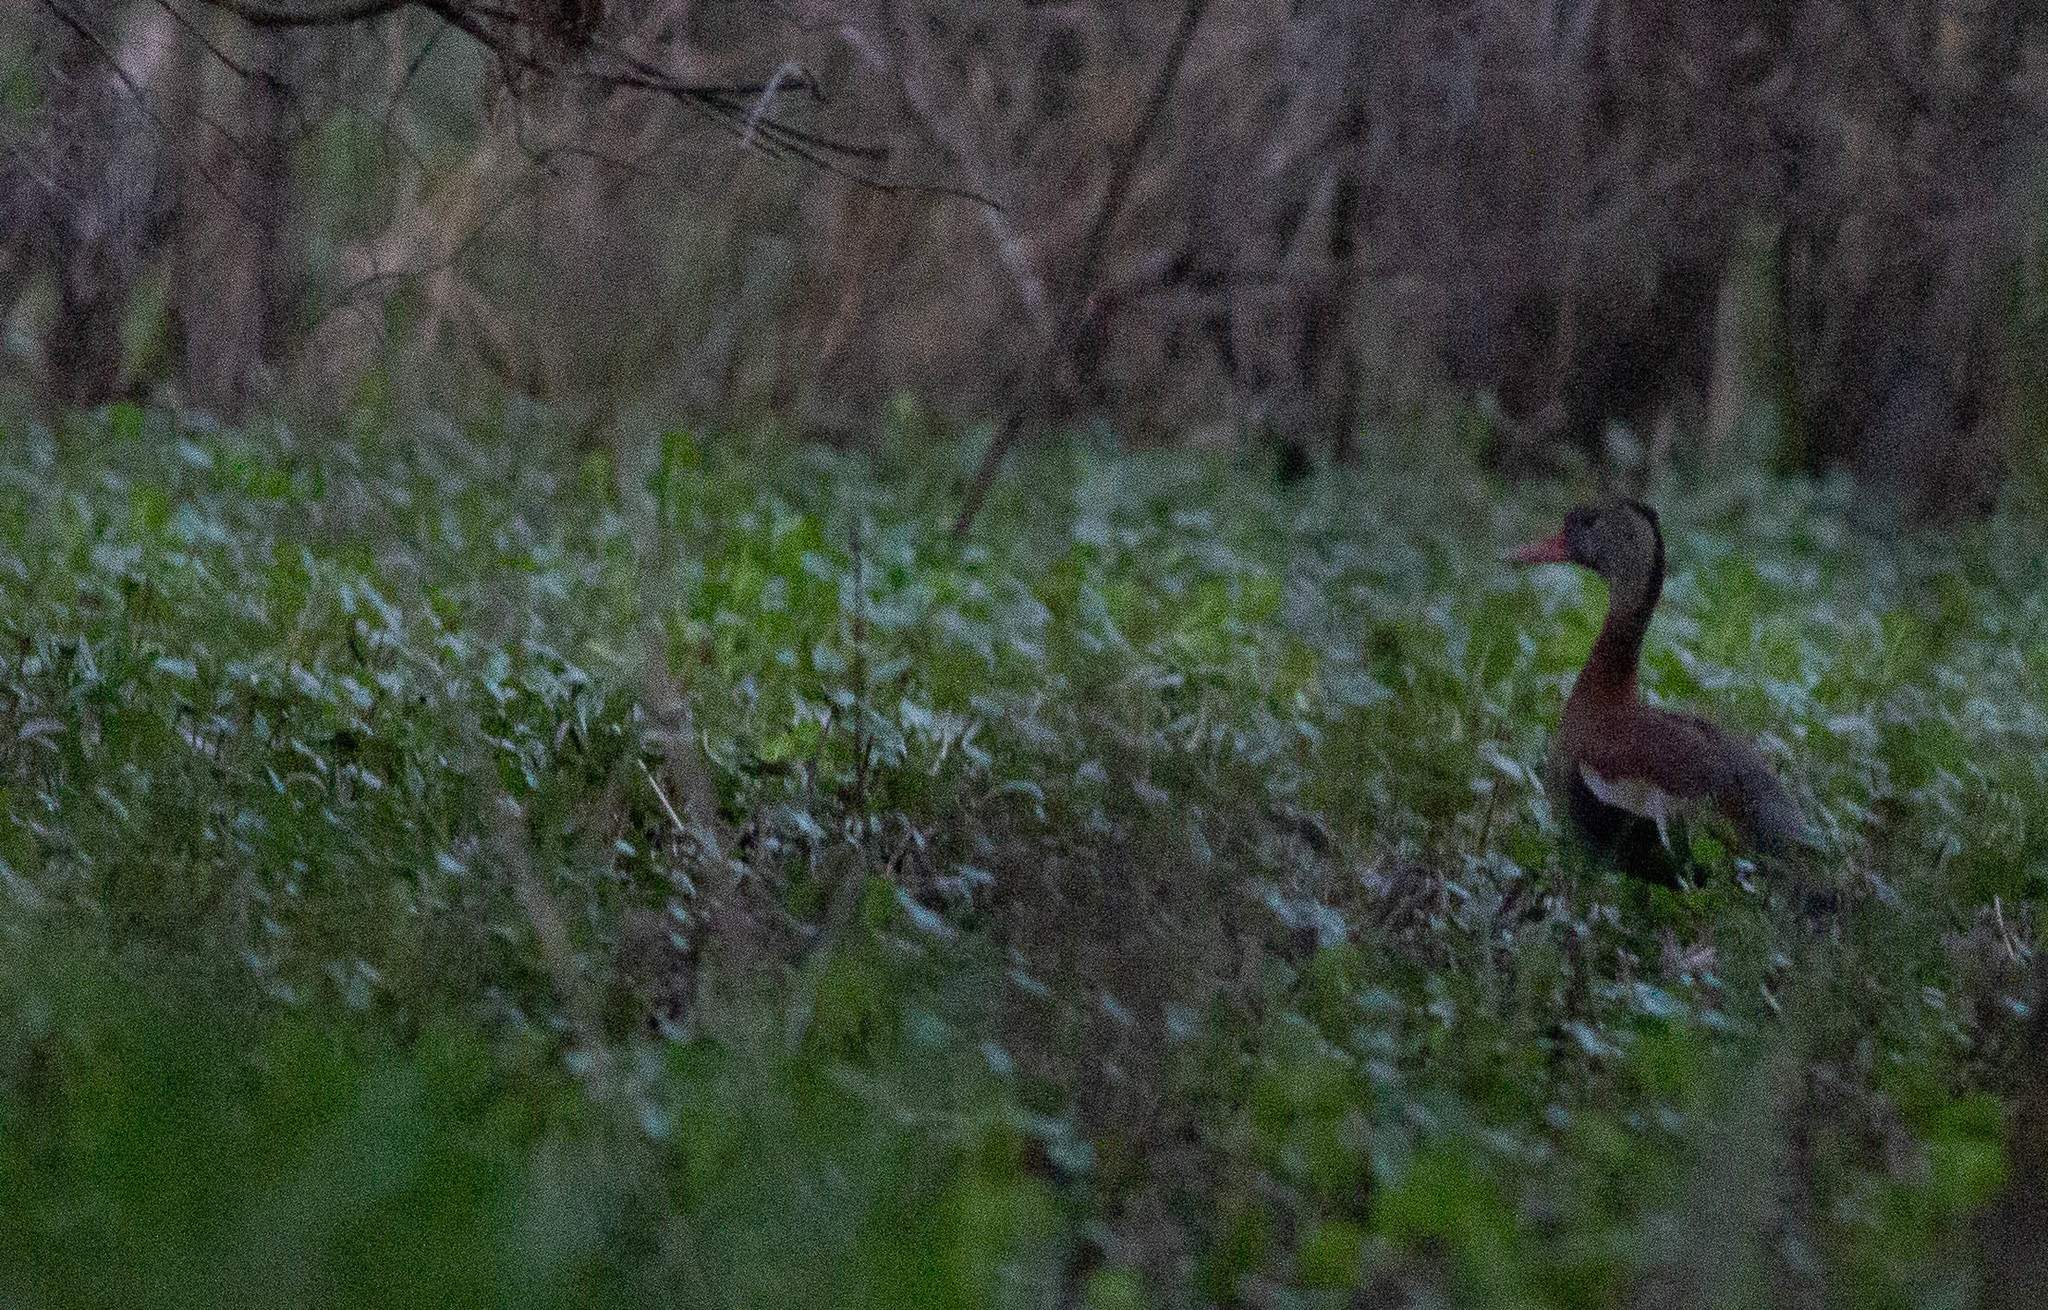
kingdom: Animalia
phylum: Chordata
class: Aves
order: Anseriformes
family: Anatidae
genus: Dendrocygna
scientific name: Dendrocygna autumnalis
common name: Black-bellied whistling duck
